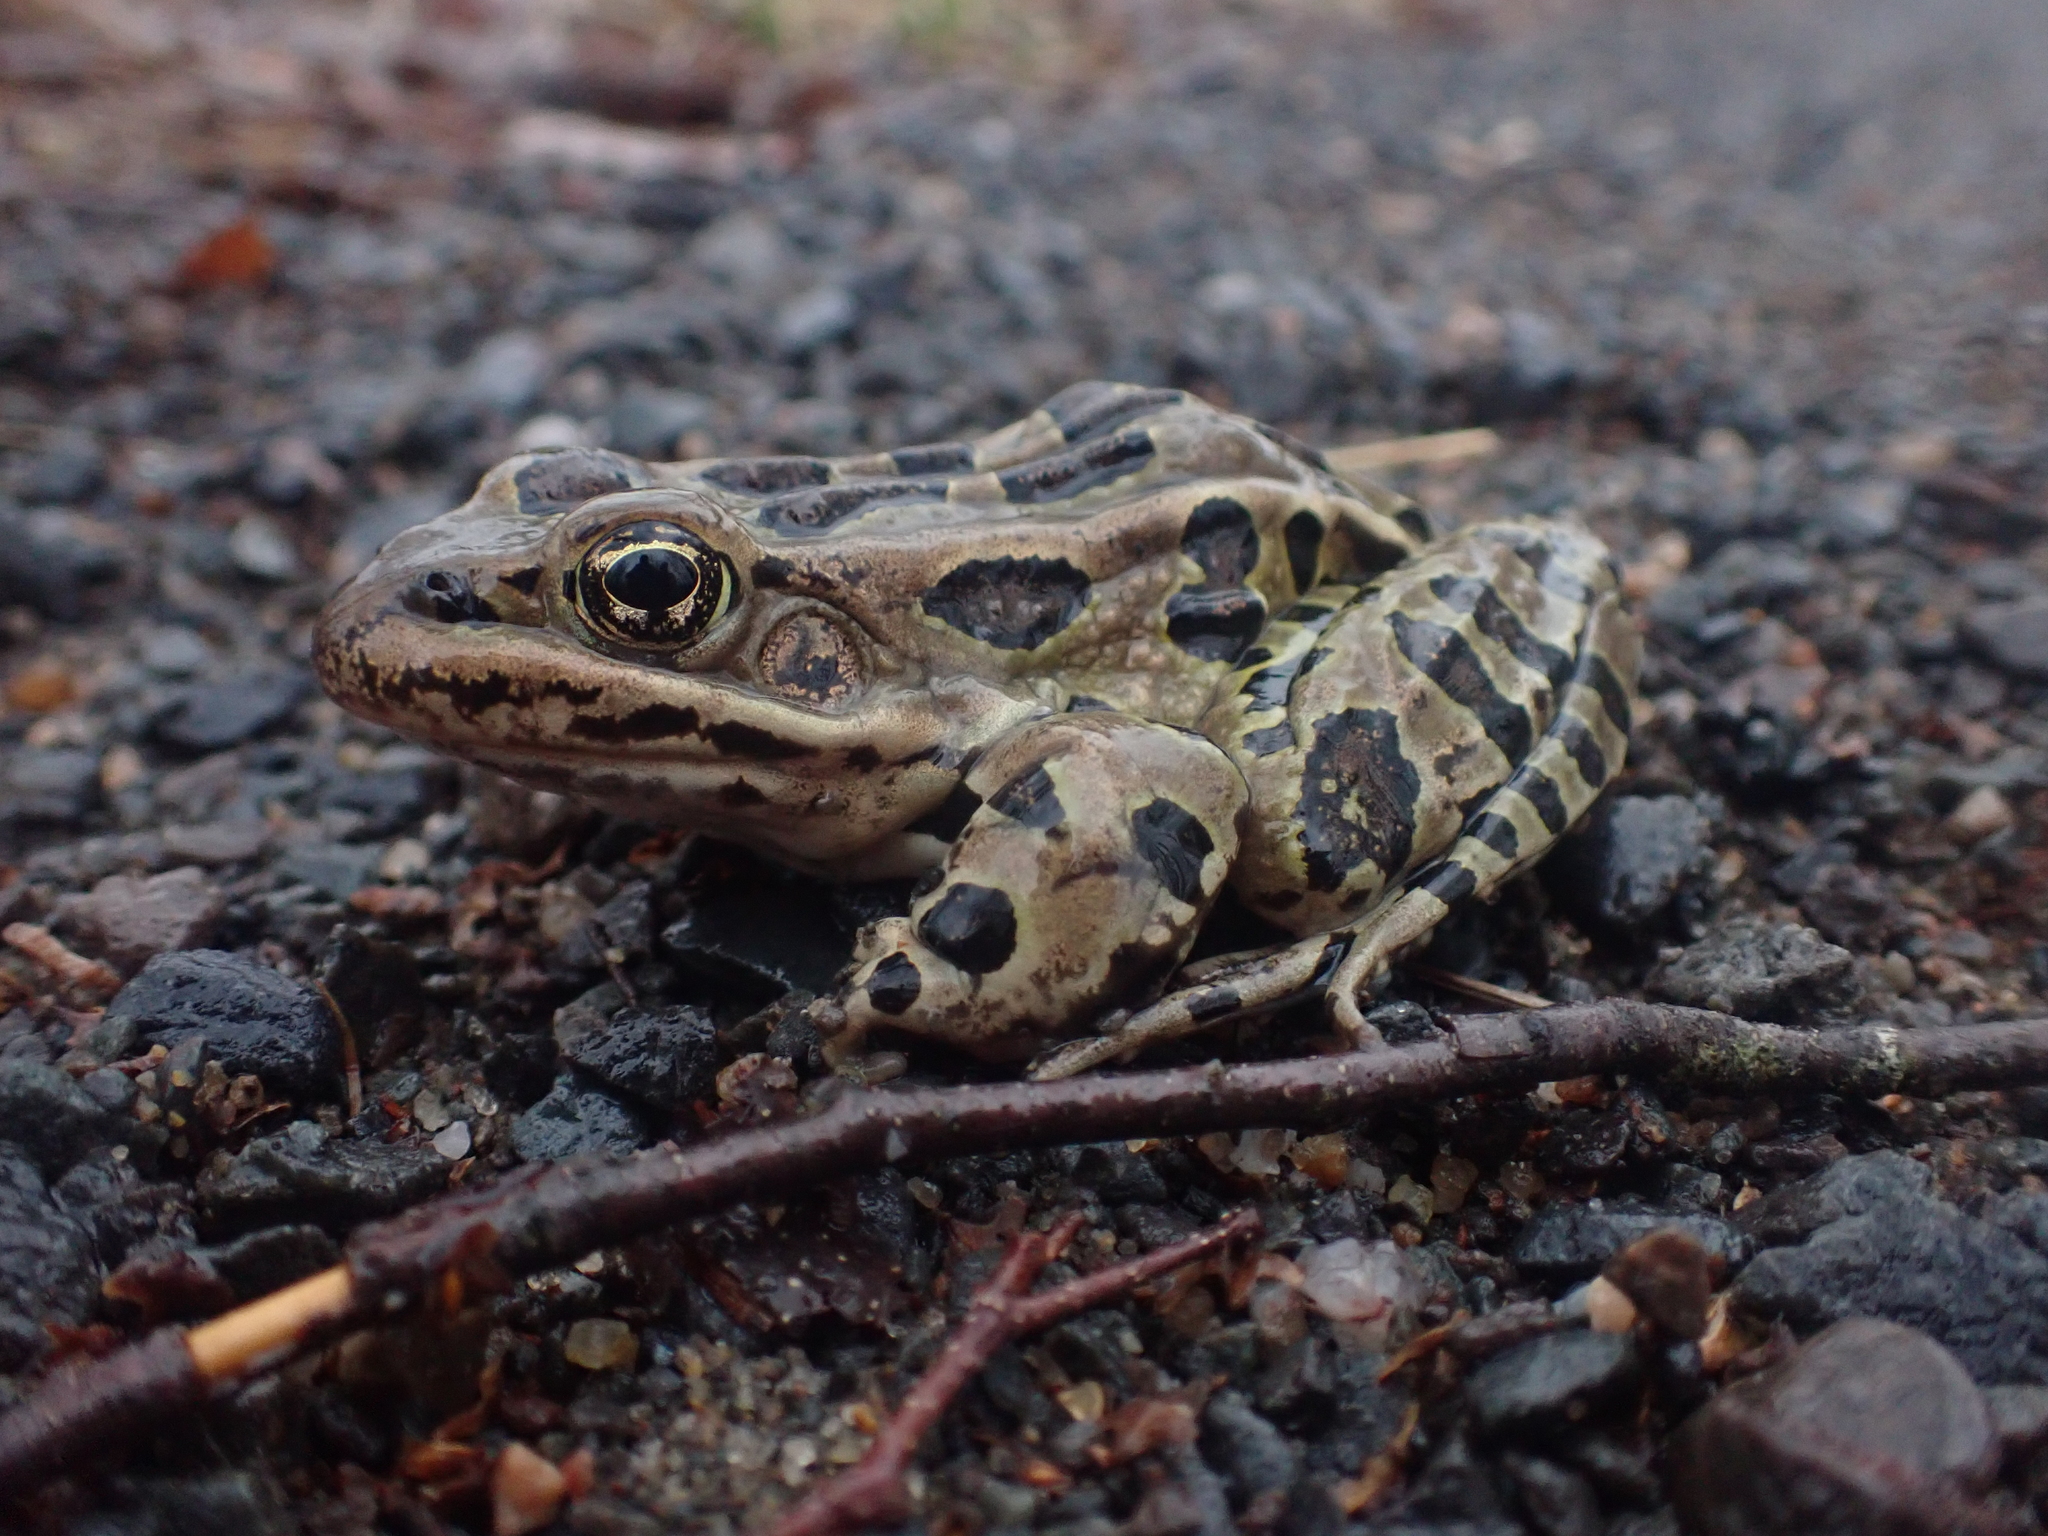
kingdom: Animalia
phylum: Chordata
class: Amphibia
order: Anura
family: Ranidae
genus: Lithobates
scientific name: Lithobates pipiens
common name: Northern leopard frog
